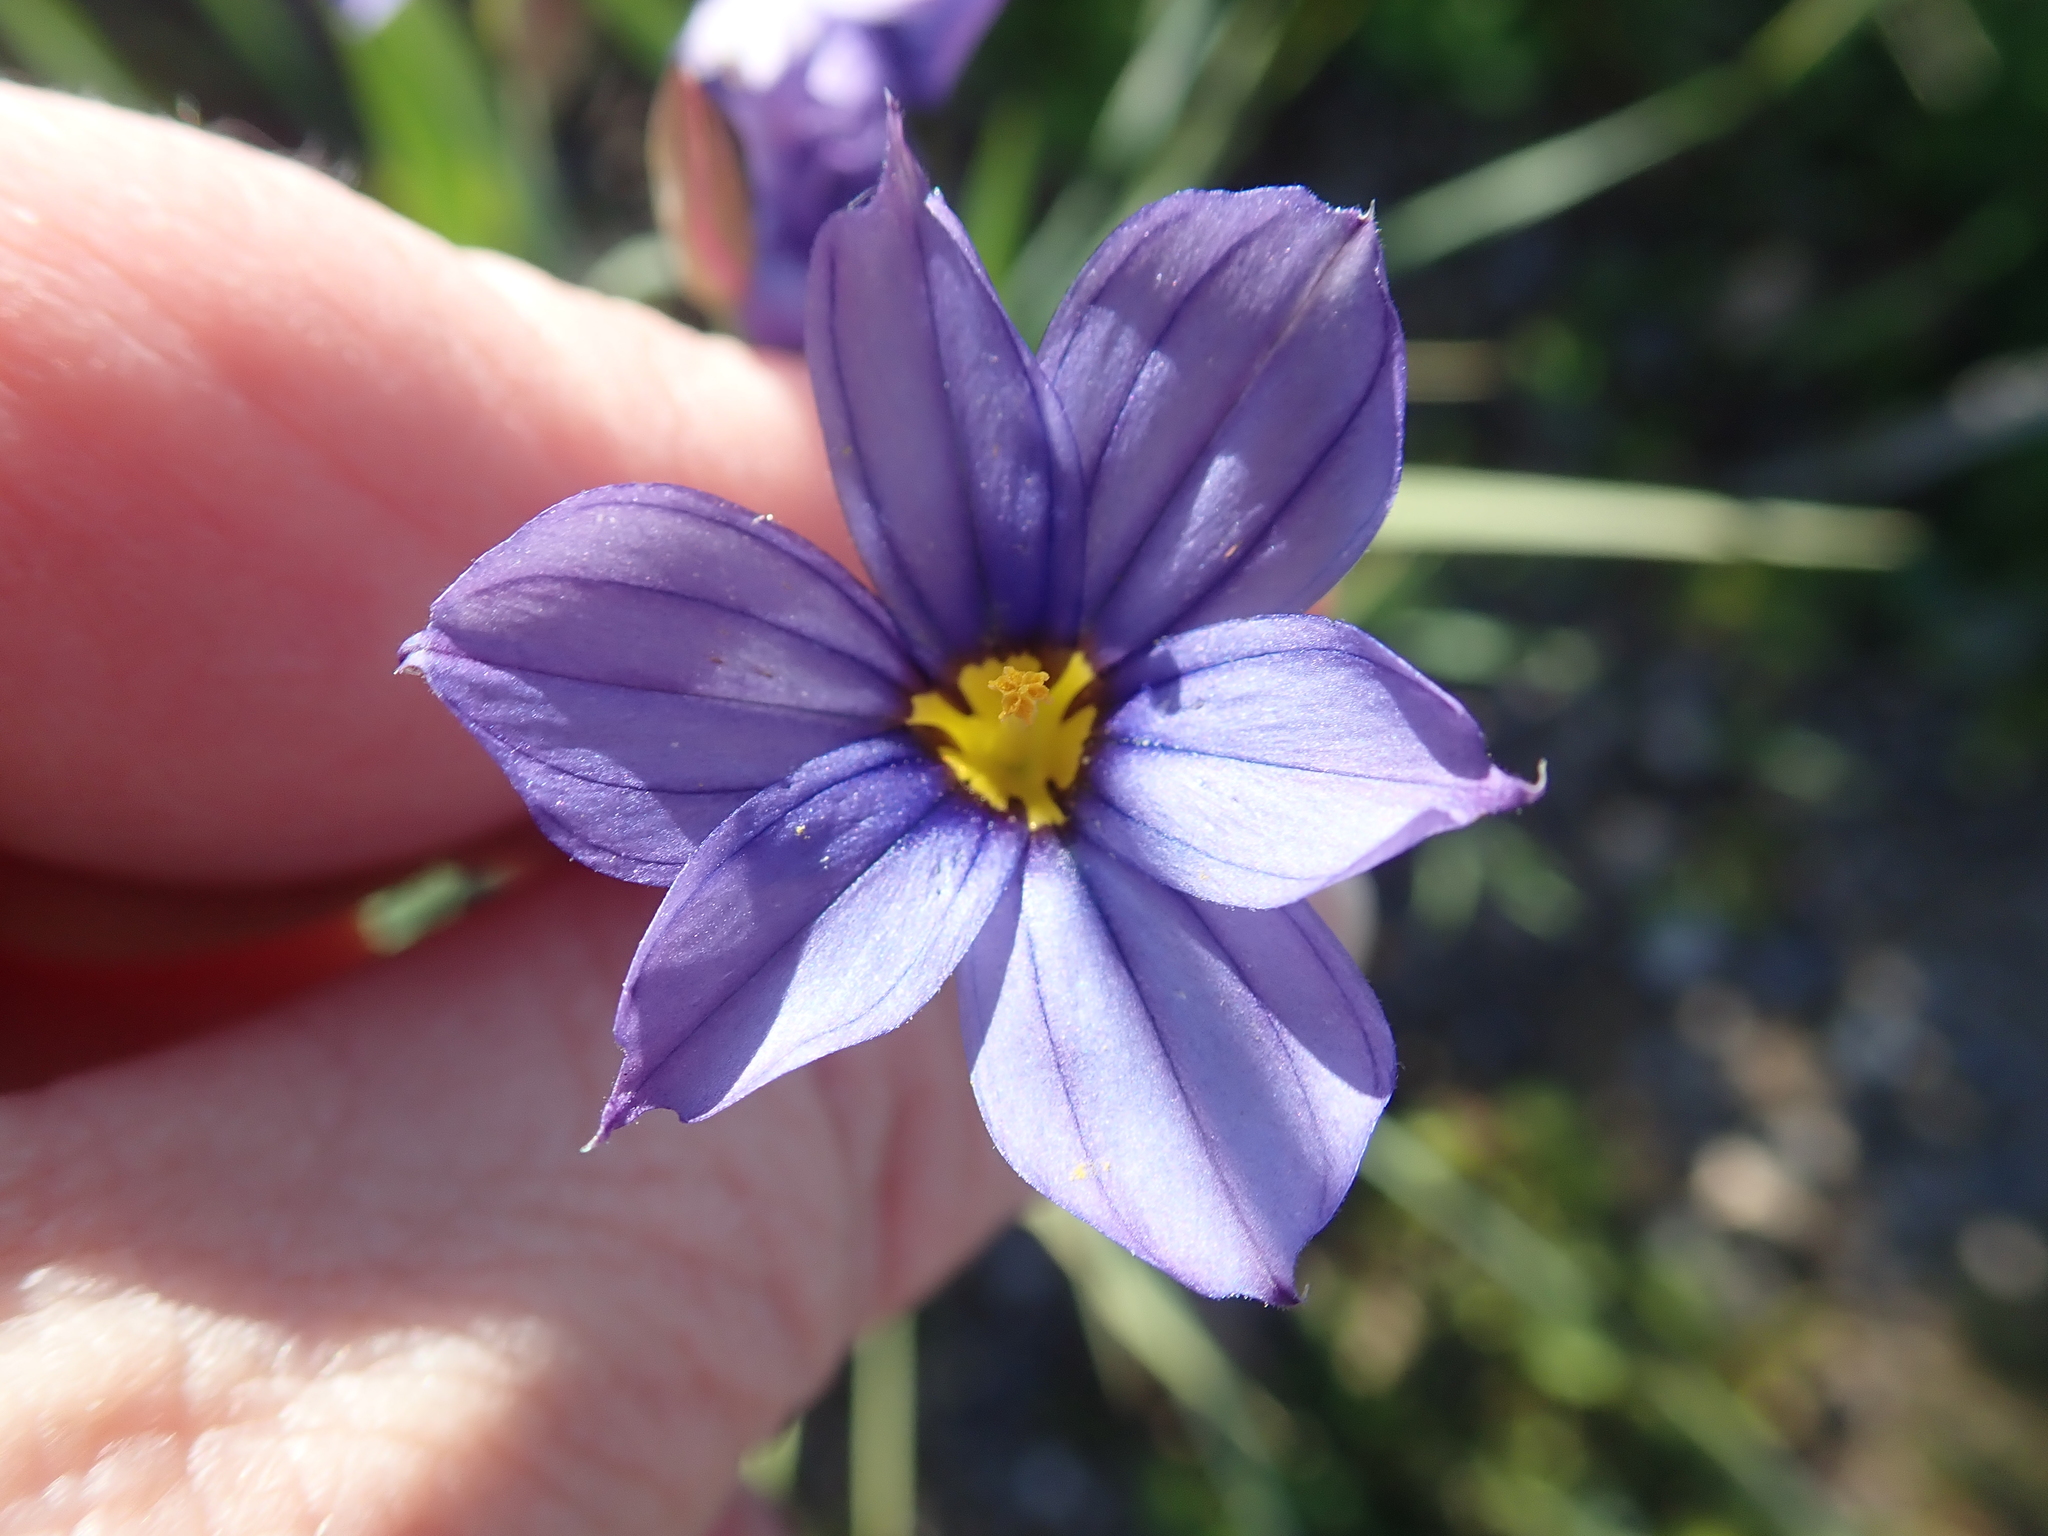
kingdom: Plantae
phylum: Tracheophyta
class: Liliopsida
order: Asparagales
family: Iridaceae
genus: Sisyrinchium
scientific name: Sisyrinchium bellum
